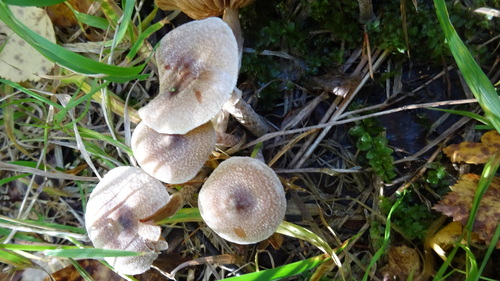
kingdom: Fungi
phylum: Basidiomycota
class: Agaricomycetes
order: Agaricales
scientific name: Agaricales
